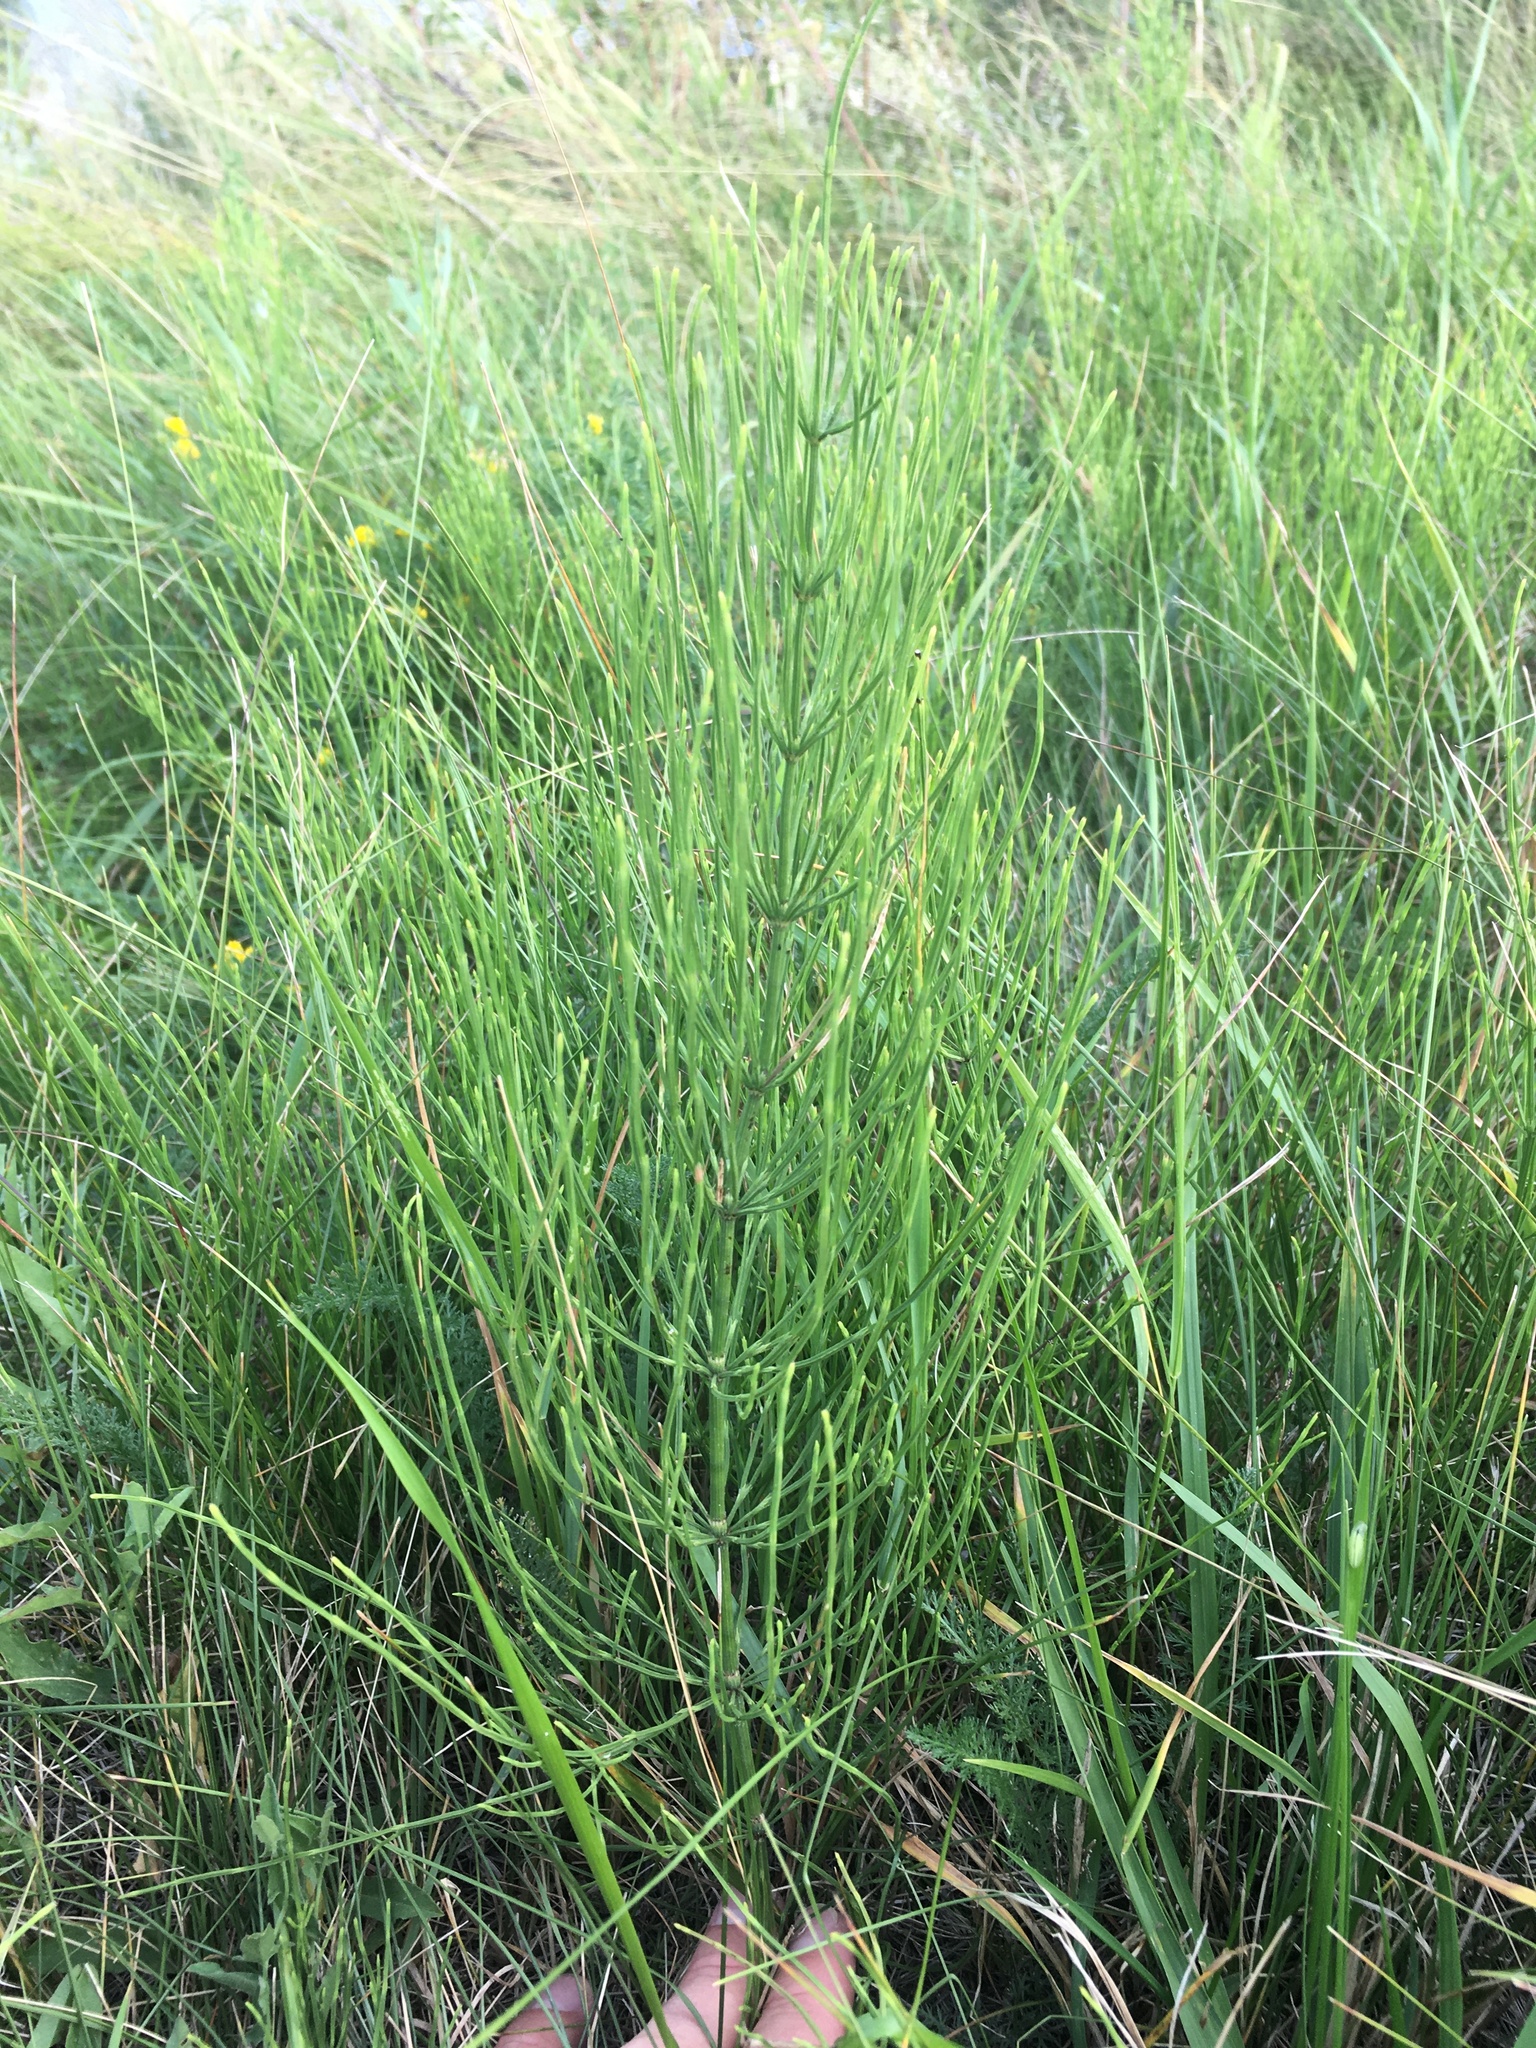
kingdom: Plantae
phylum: Tracheophyta
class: Polypodiopsida
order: Equisetales
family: Equisetaceae
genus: Equisetum
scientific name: Equisetum arvense
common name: Field horsetail
